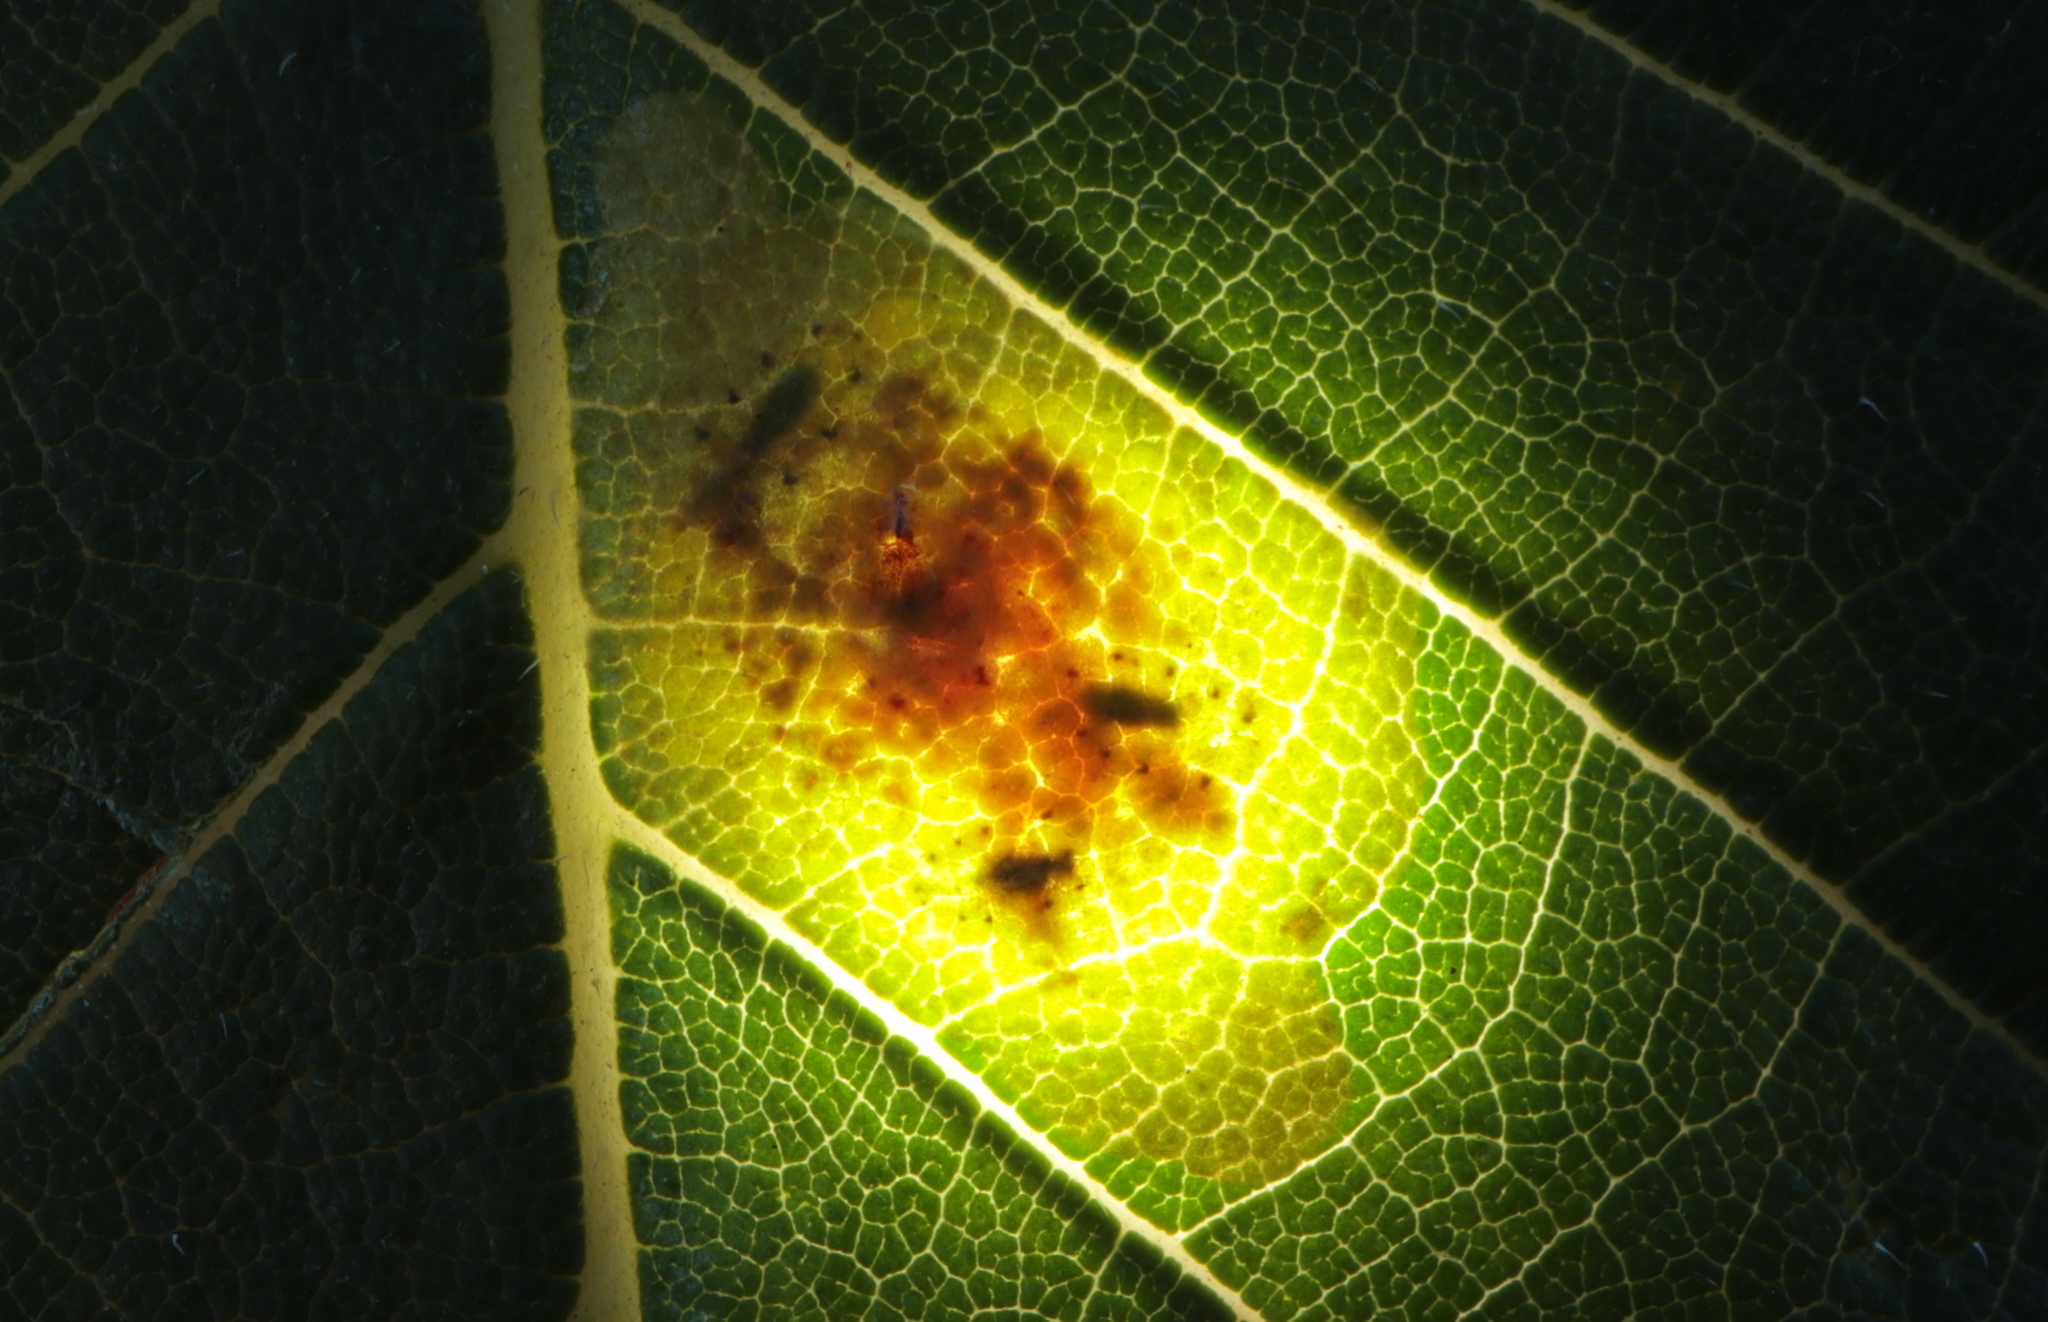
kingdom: Animalia
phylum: Arthropoda
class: Insecta
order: Lepidoptera
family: Gracillariidae
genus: Cameraria
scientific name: Cameraria ulmella
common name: Elm leafminer
